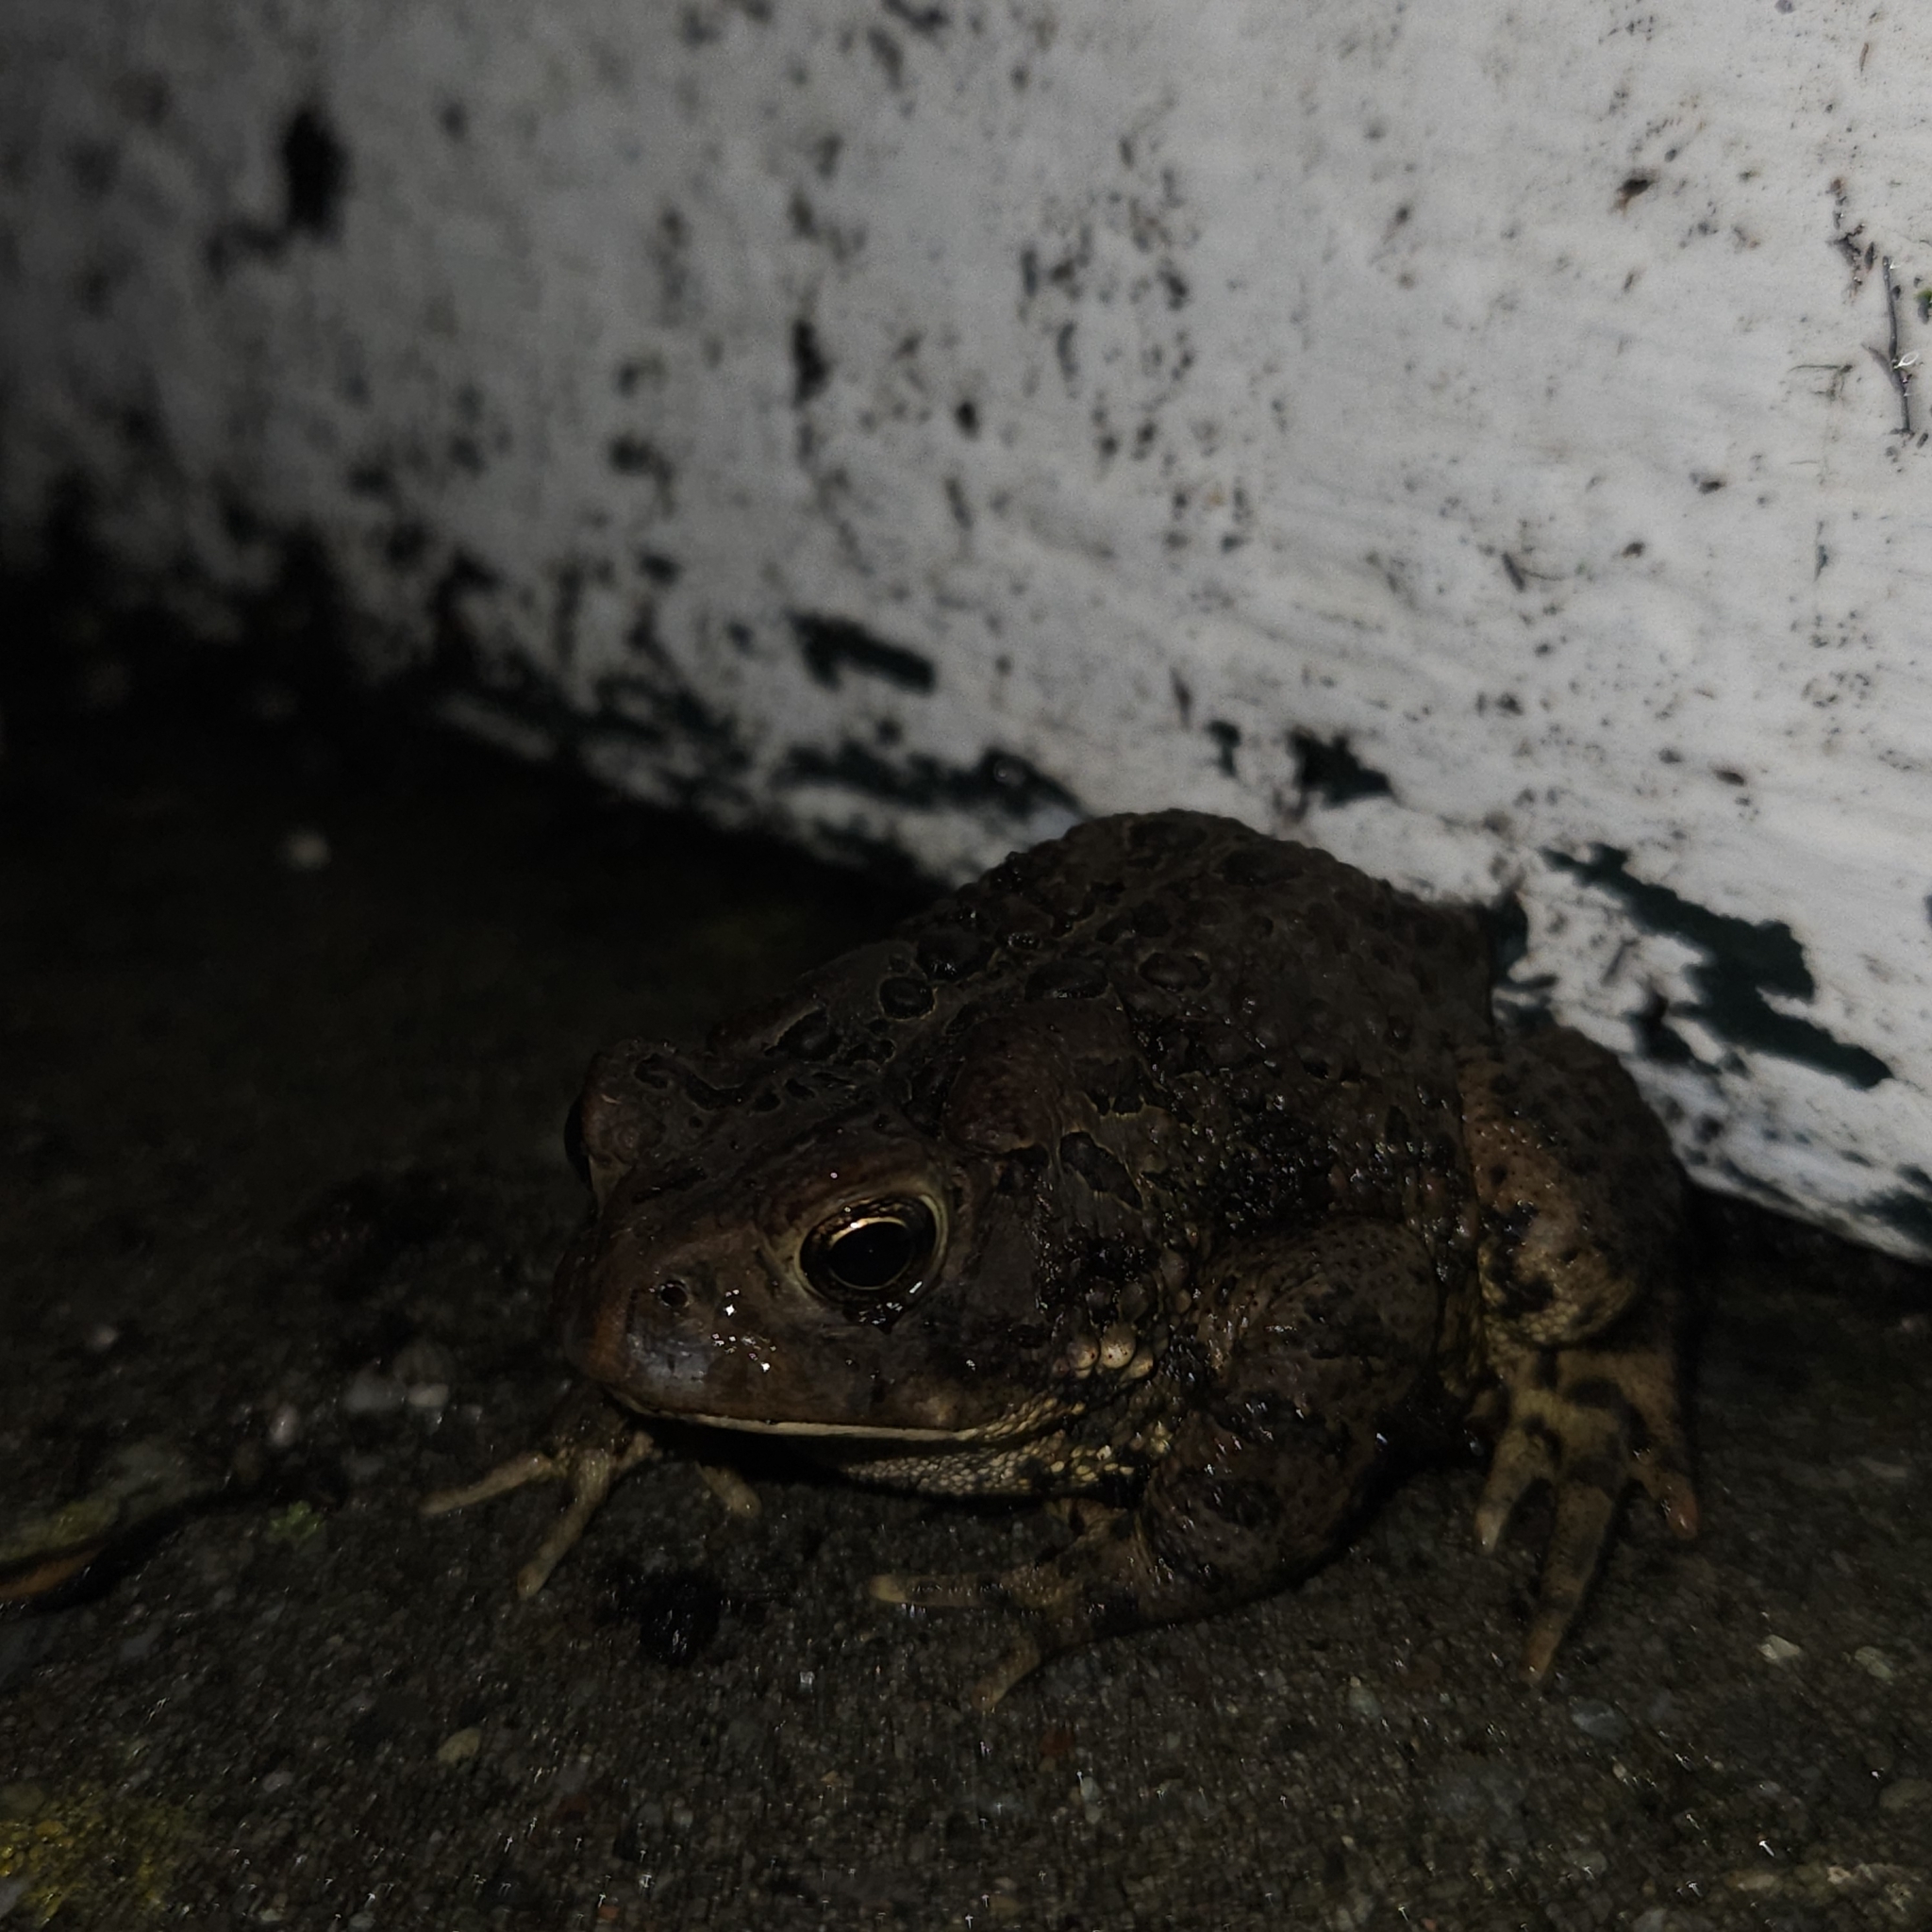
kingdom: Animalia
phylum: Chordata
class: Amphibia
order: Anura
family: Bufonidae
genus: Anaxyrus
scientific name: Anaxyrus americanus
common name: American toad
